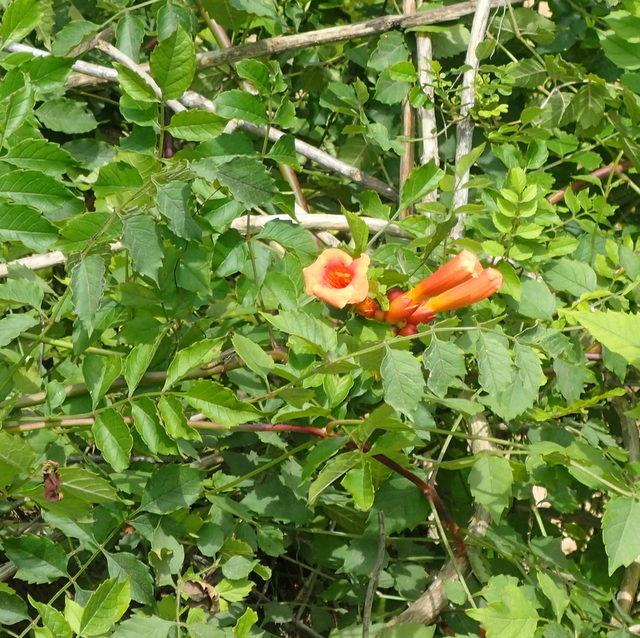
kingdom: Plantae
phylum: Tracheophyta
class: Magnoliopsida
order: Lamiales
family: Bignoniaceae
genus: Campsis
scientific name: Campsis radicans
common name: Trumpet-creeper
